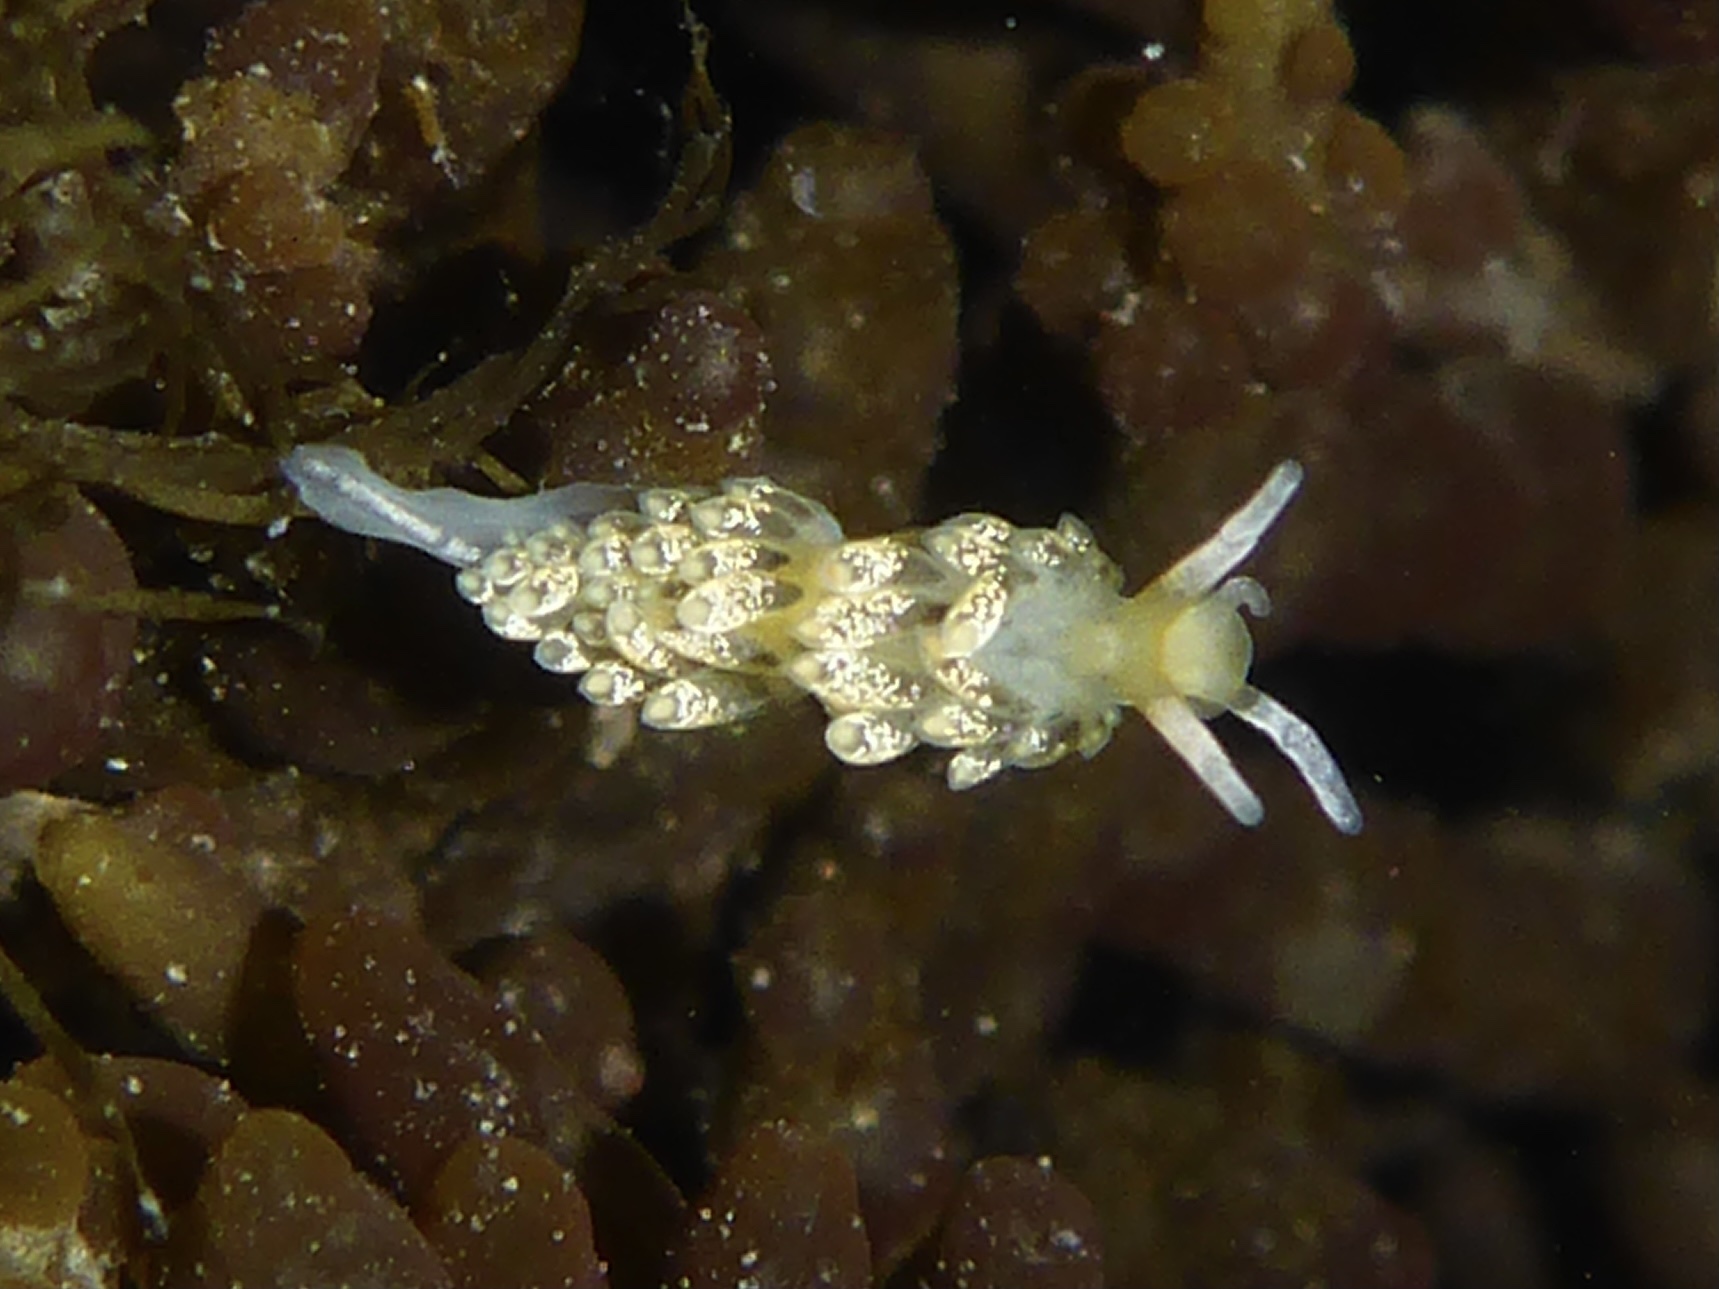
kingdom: Animalia
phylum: Mollusca
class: Gastropoda
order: Nudibranchia
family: Trinchesiidae
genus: Diaphoreolis
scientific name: Diaphoreolis flavovulta
